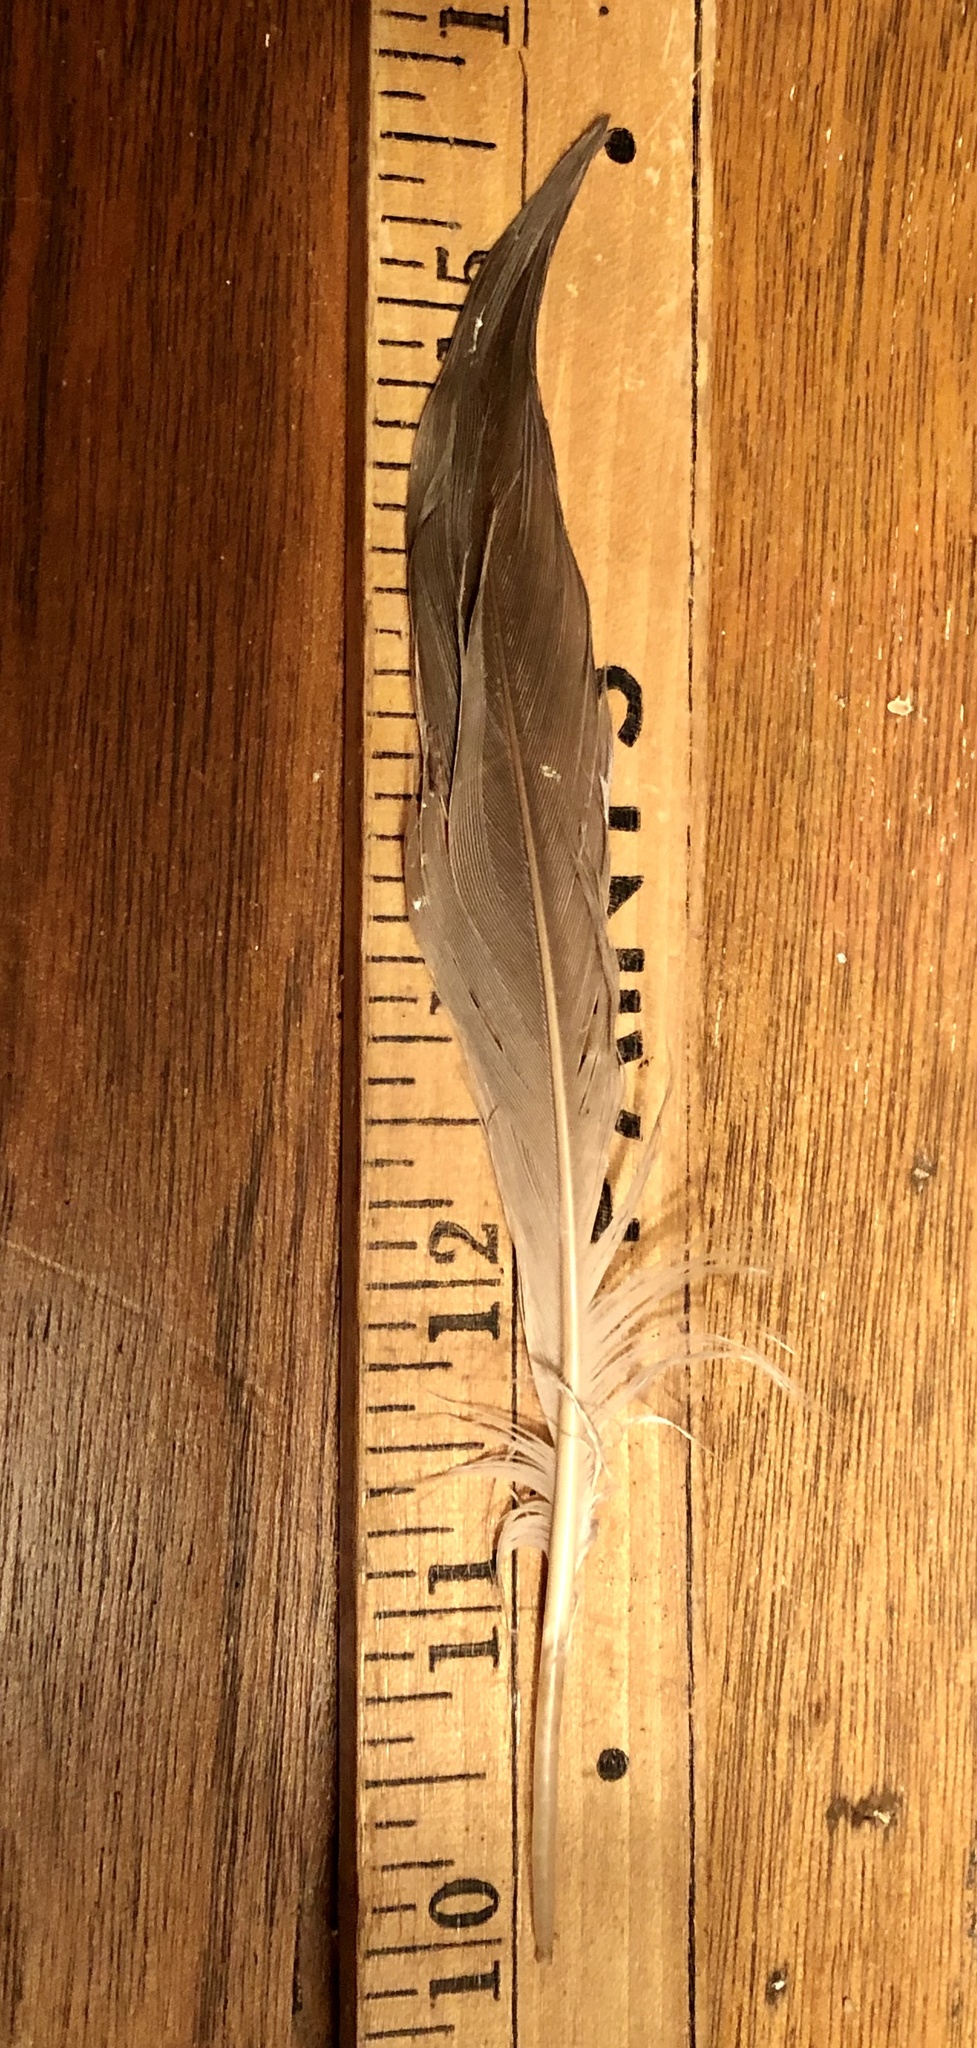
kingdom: Animalia
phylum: Chordata
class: Aves
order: Anseriformes
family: Anatidae
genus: Branta
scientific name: Branta canadensis
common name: Canada goose
